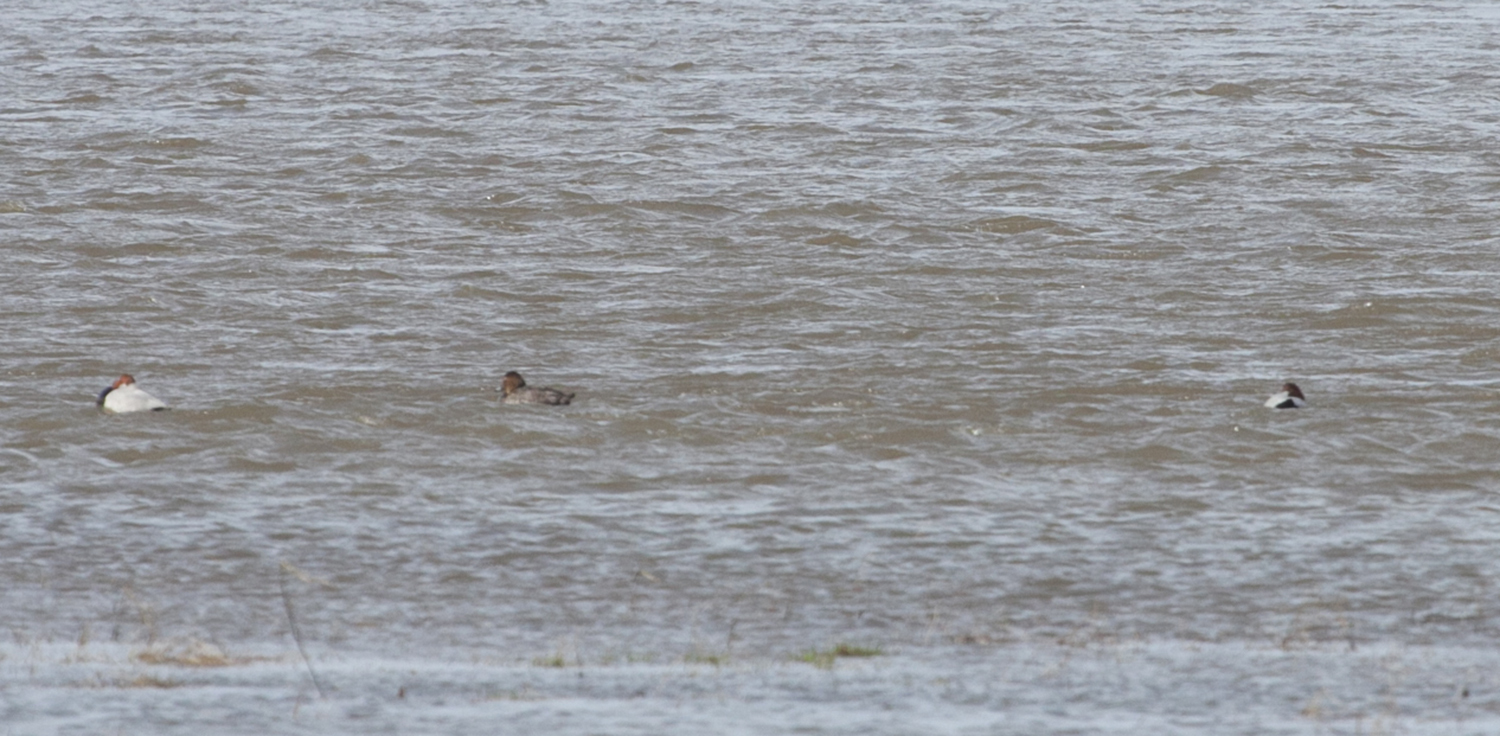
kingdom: Animalia
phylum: Chordata
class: Aves
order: Anseriformes
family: Anatidae
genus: Aythya
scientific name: Aythya ferina
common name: Common pochard
